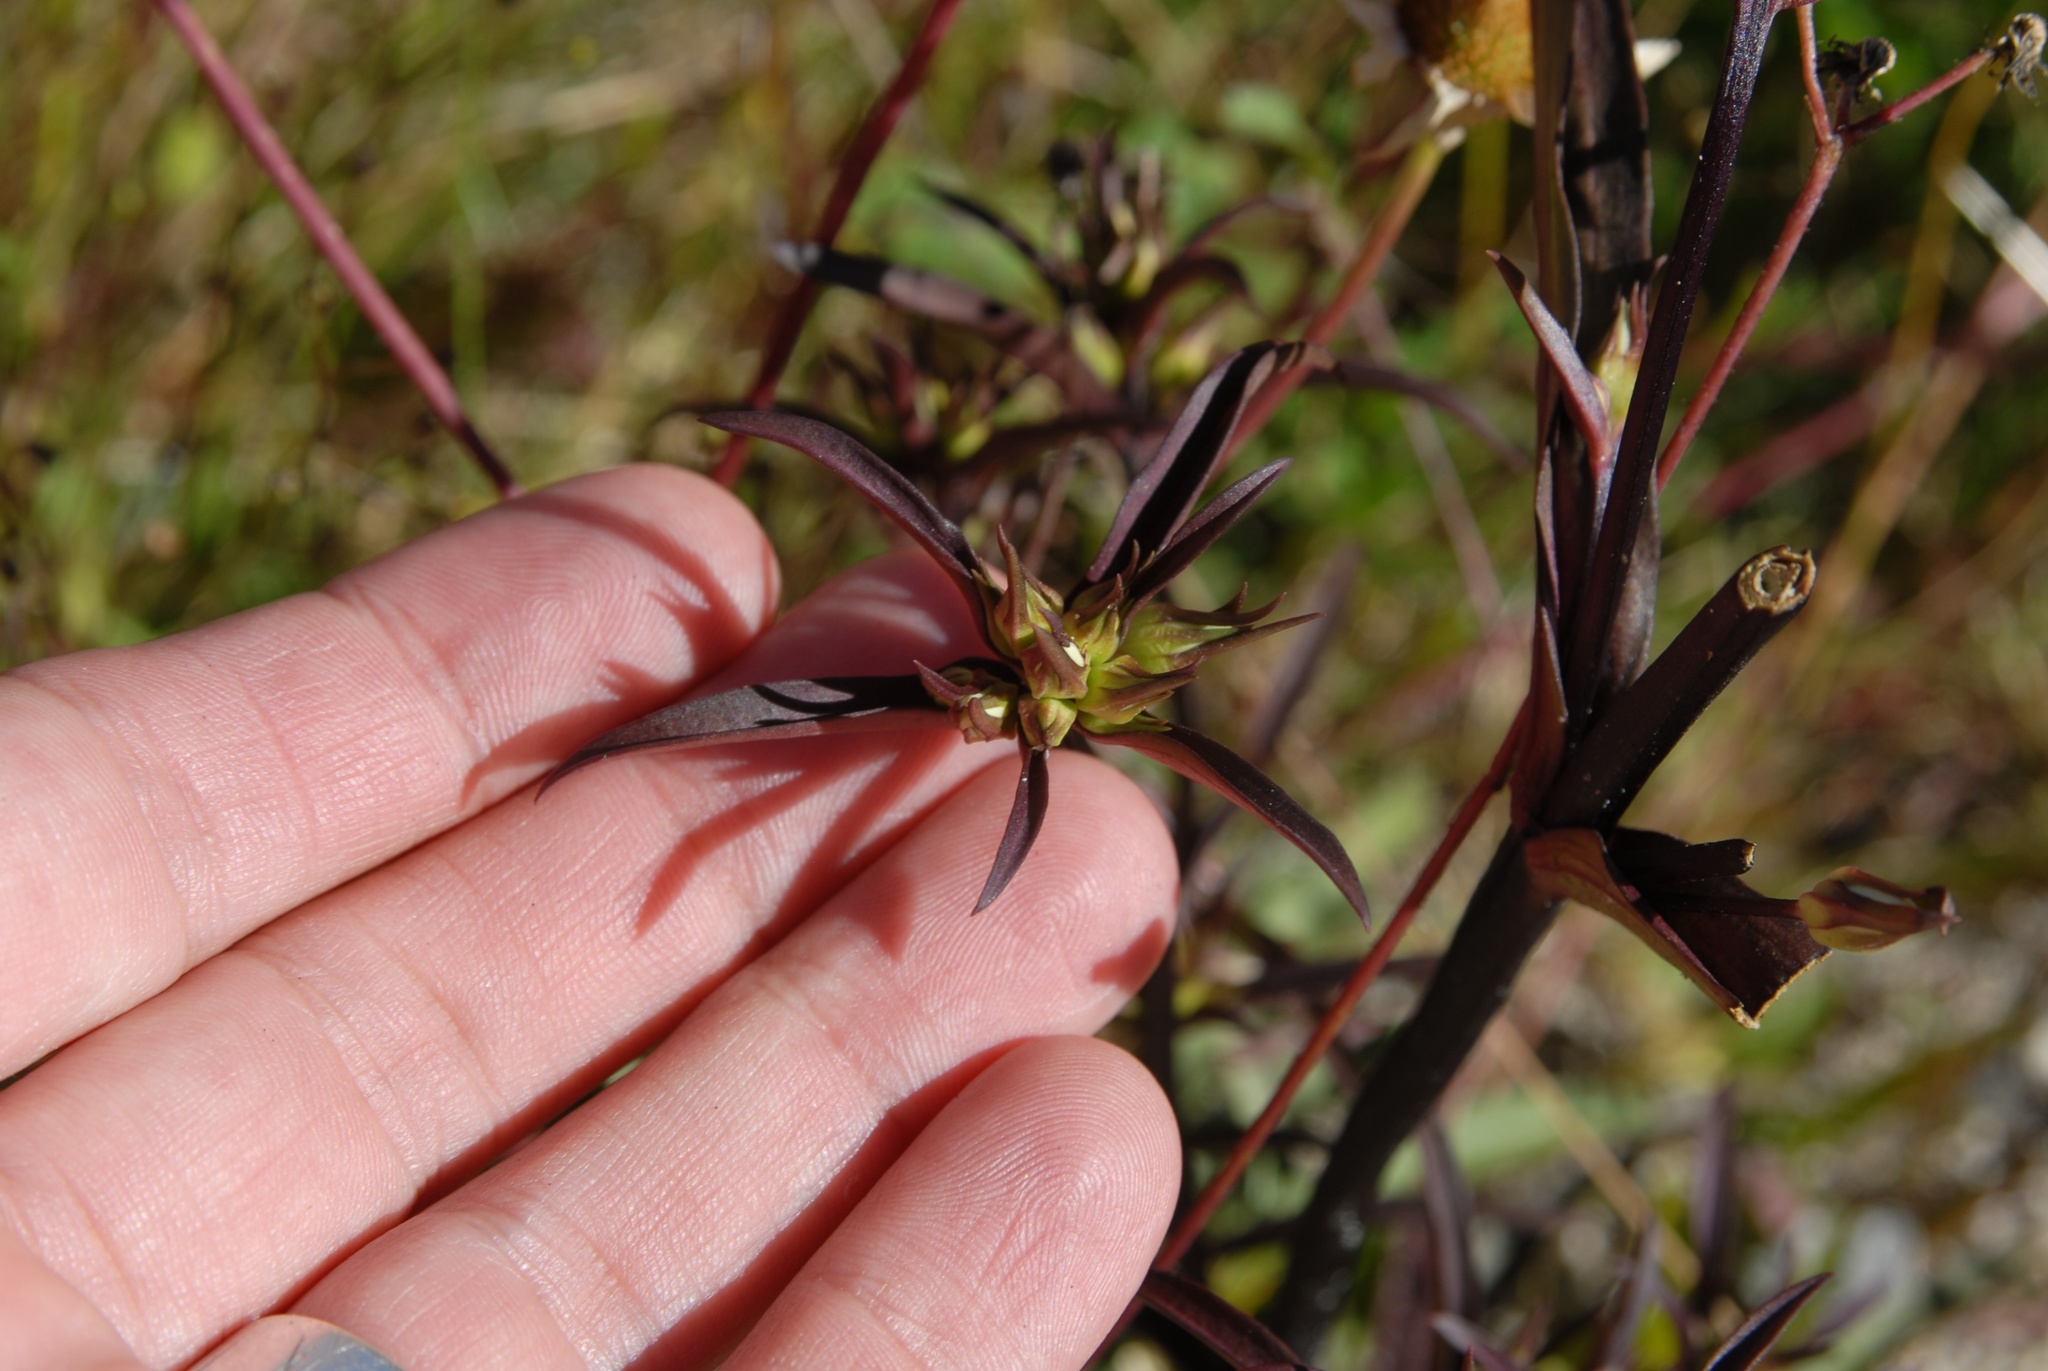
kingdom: Plantae
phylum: Tracheophyta
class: Magnoliopsida
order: Gentianales
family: Gentianaceae
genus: Gentianella
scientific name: Gentianella corymbifera
